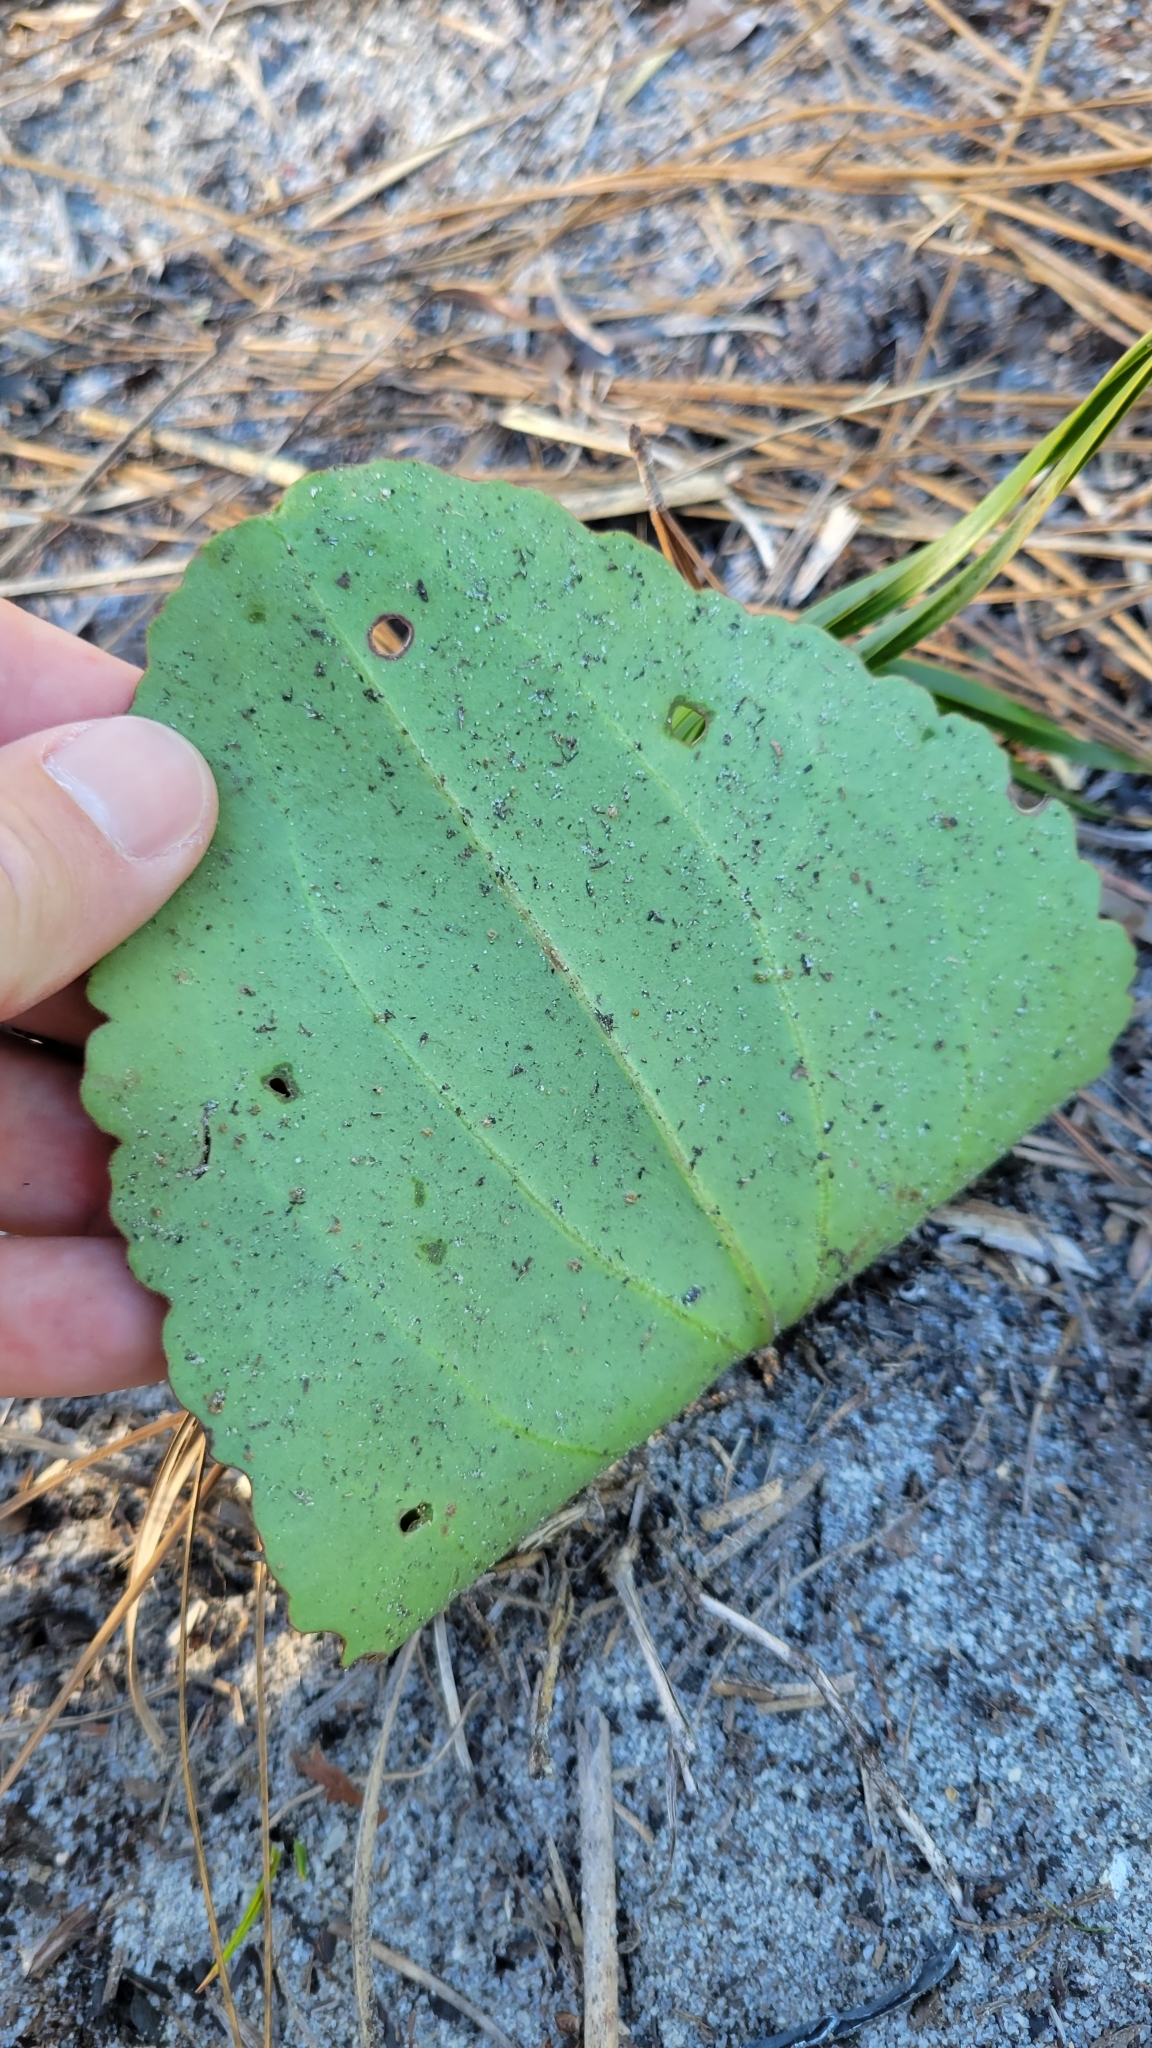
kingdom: Plantae
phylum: Tracheophyta
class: Magnoliopsida
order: Asterales
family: Asteraceae
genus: Arnoglossum
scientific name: Arnoglossum floridanum
